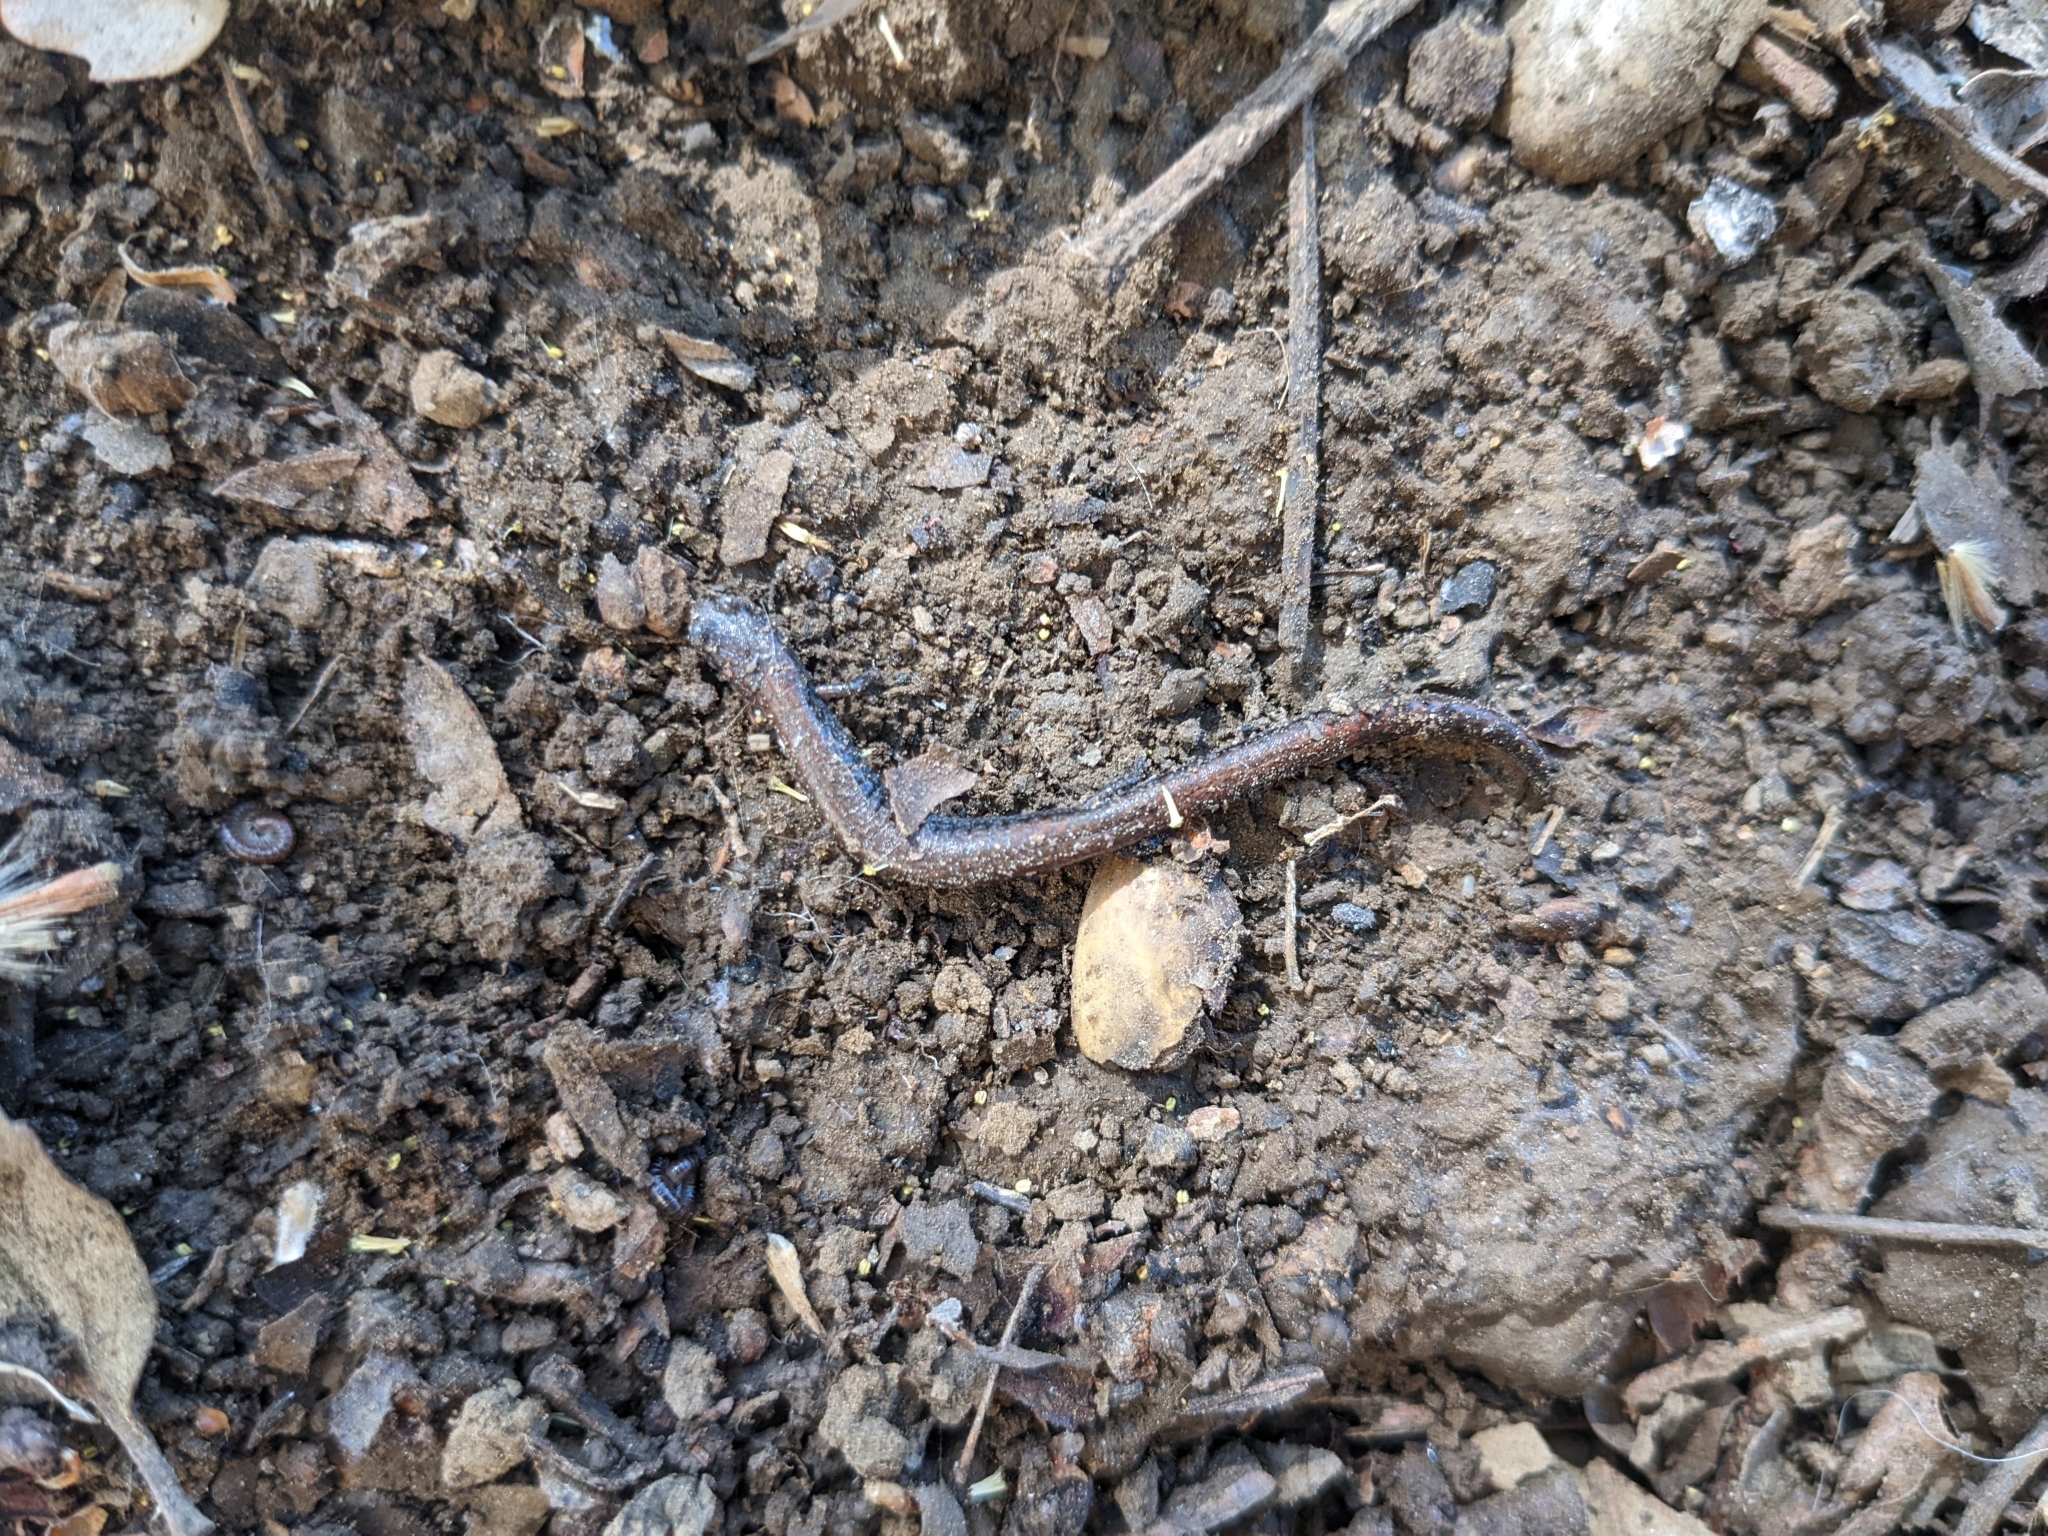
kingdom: Animalia
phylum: Chordata
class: Amphibia
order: Caudata
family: Plethodontidae
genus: Batrachoseps
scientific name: Batrachoseps nigriventris
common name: Black-bellied slender salamander
